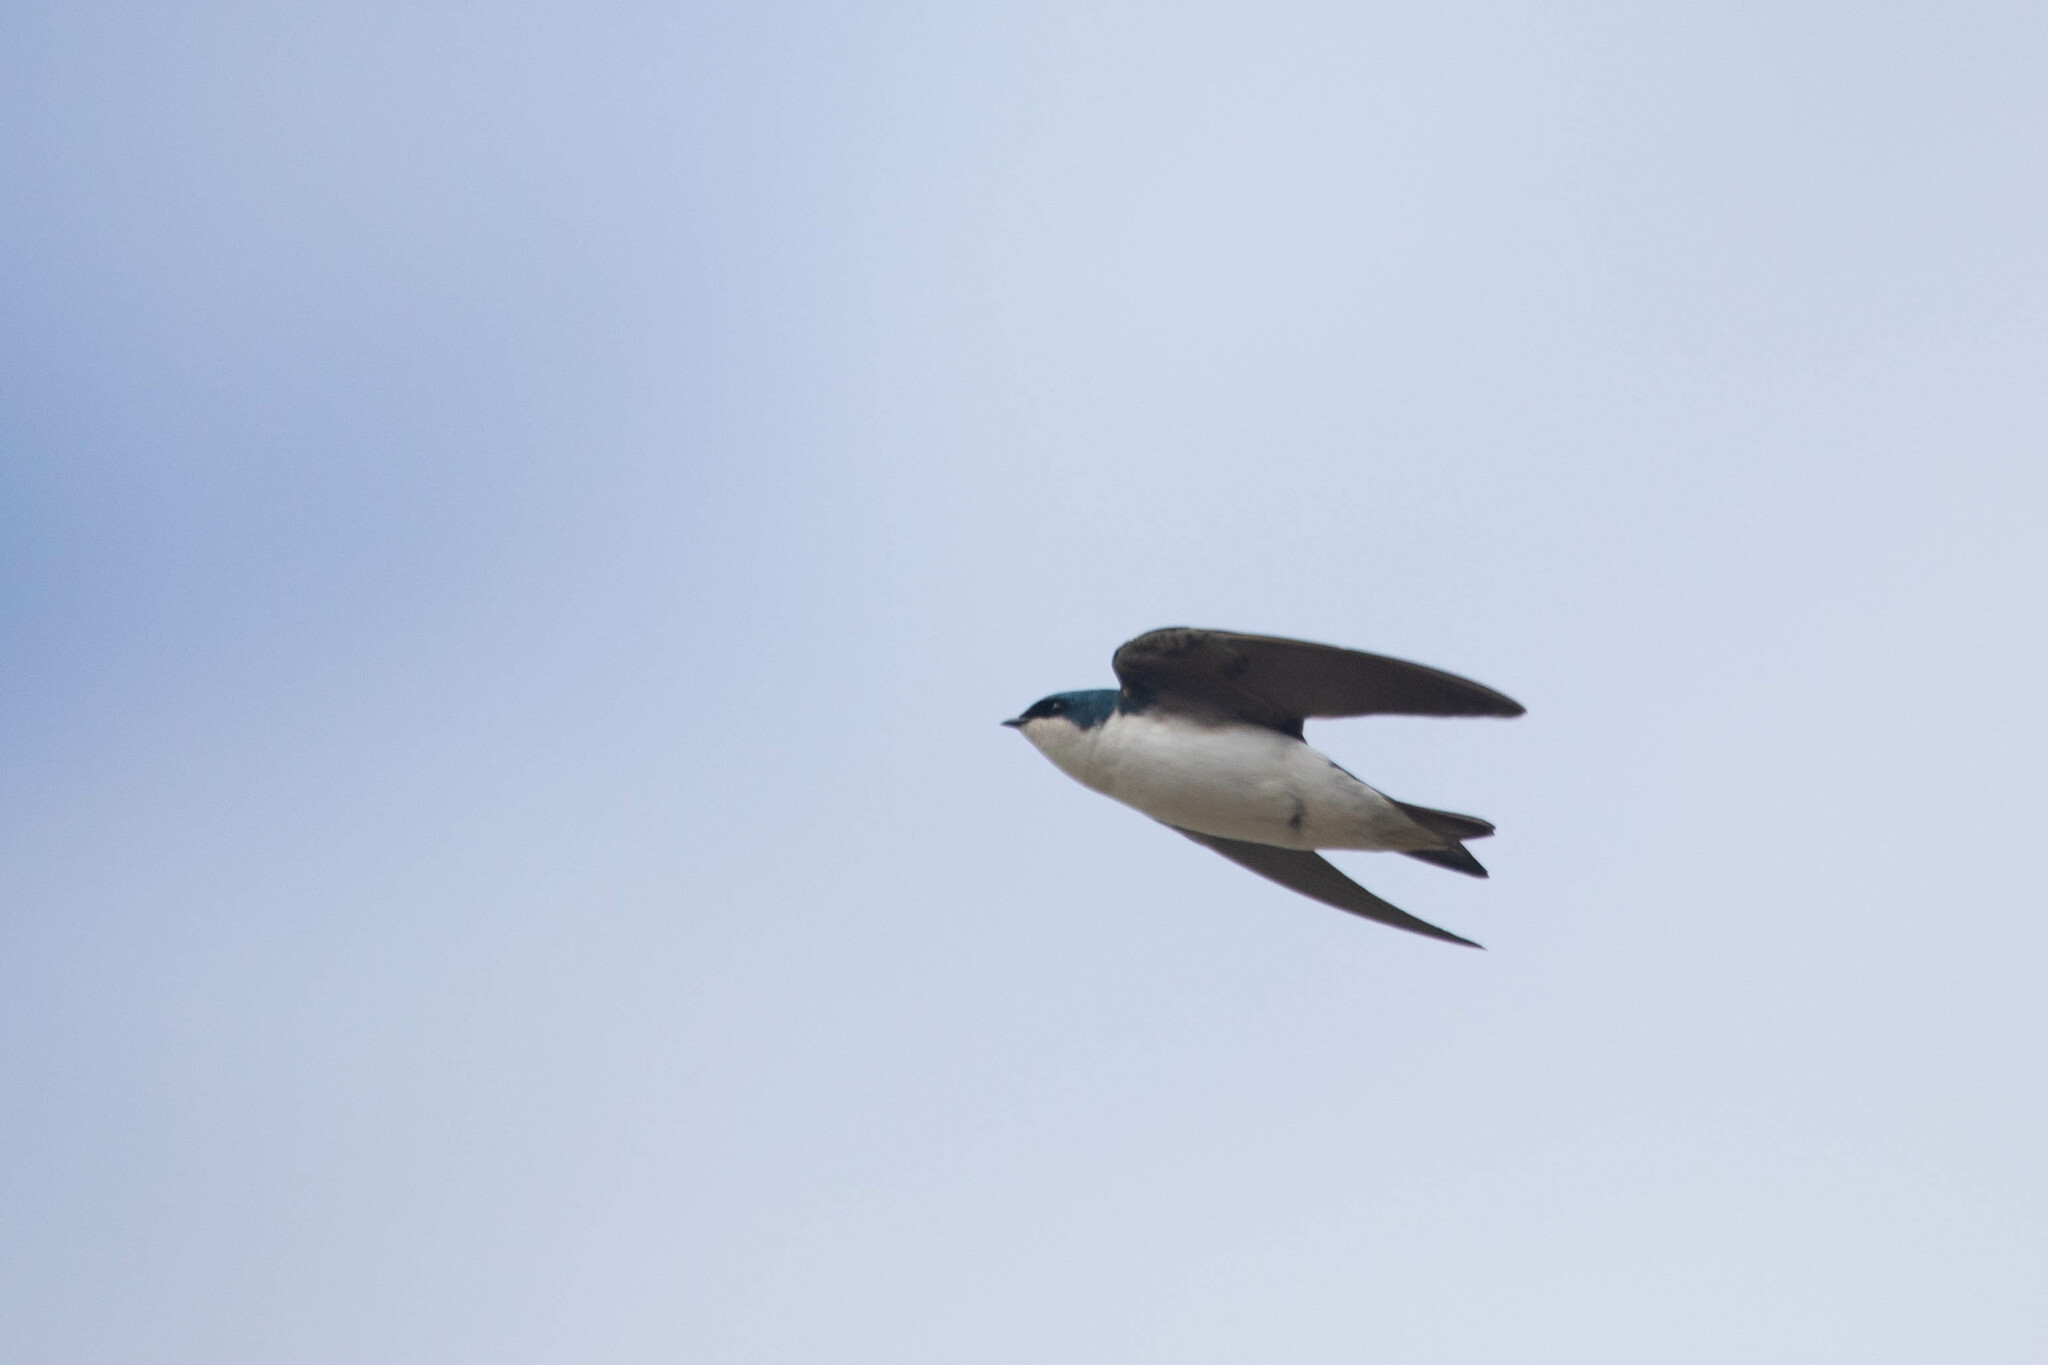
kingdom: Animalia
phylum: Chordata
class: Aves
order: Passeriformes
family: Hirundinidae
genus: Tachycineta
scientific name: Tachycineta bicolor
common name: Tree swallow
